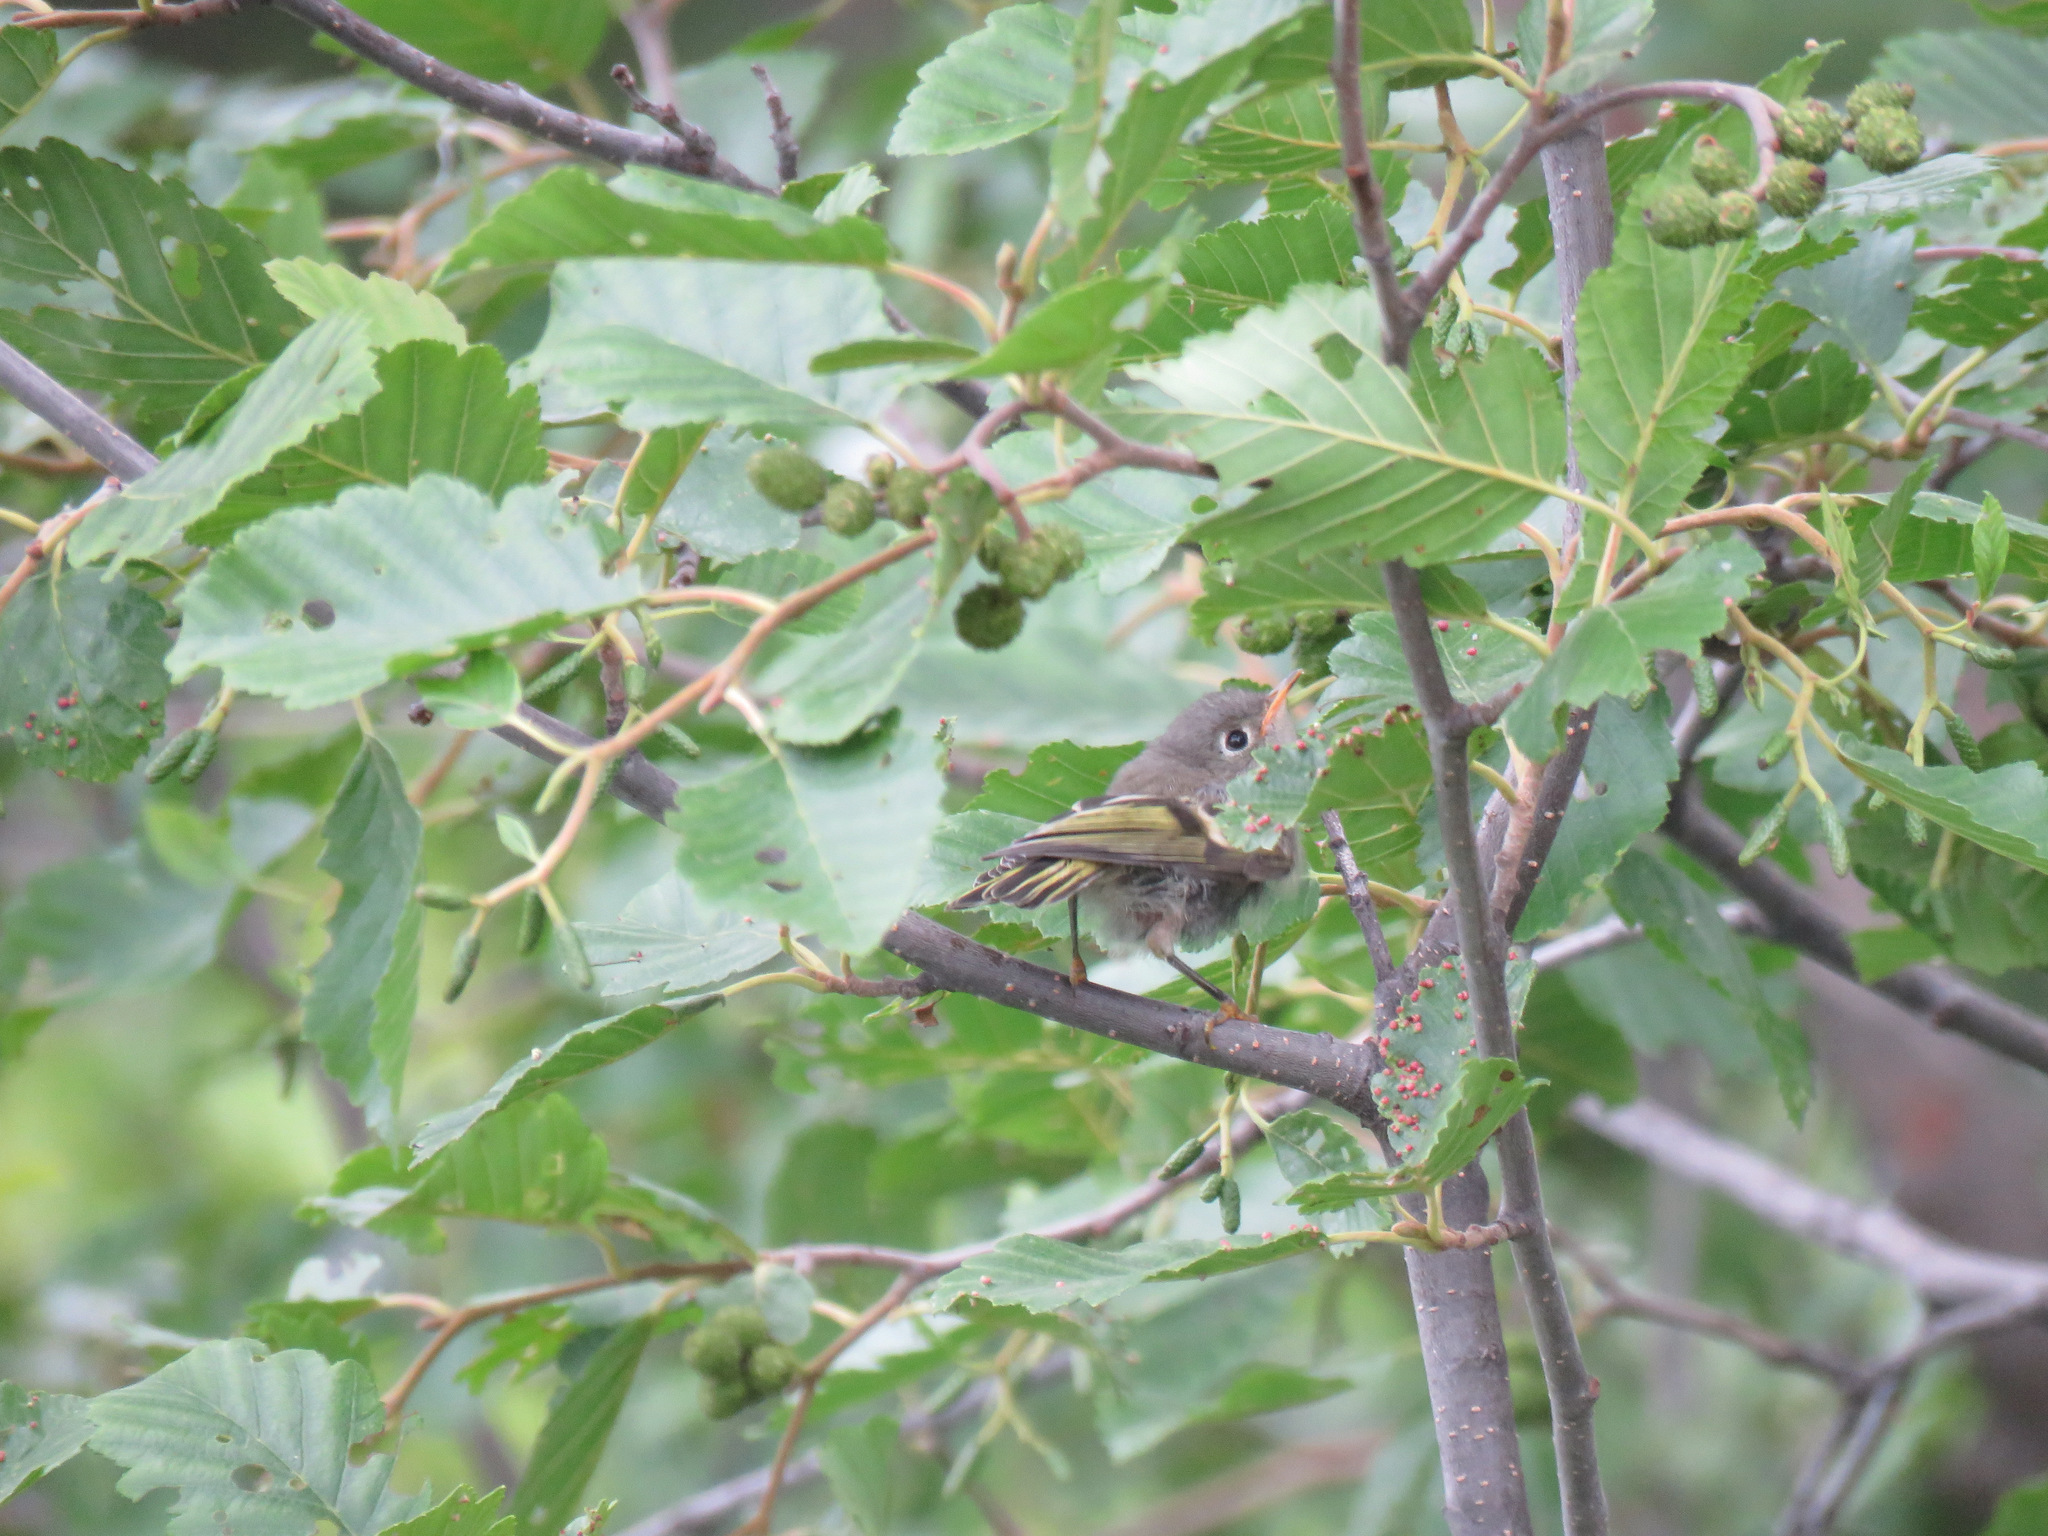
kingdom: Animalia
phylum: Chordata
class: Aves
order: Passeriformes
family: Regulidae
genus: Regulus
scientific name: Regulus calendula
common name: Ruby-crowned kinglet
